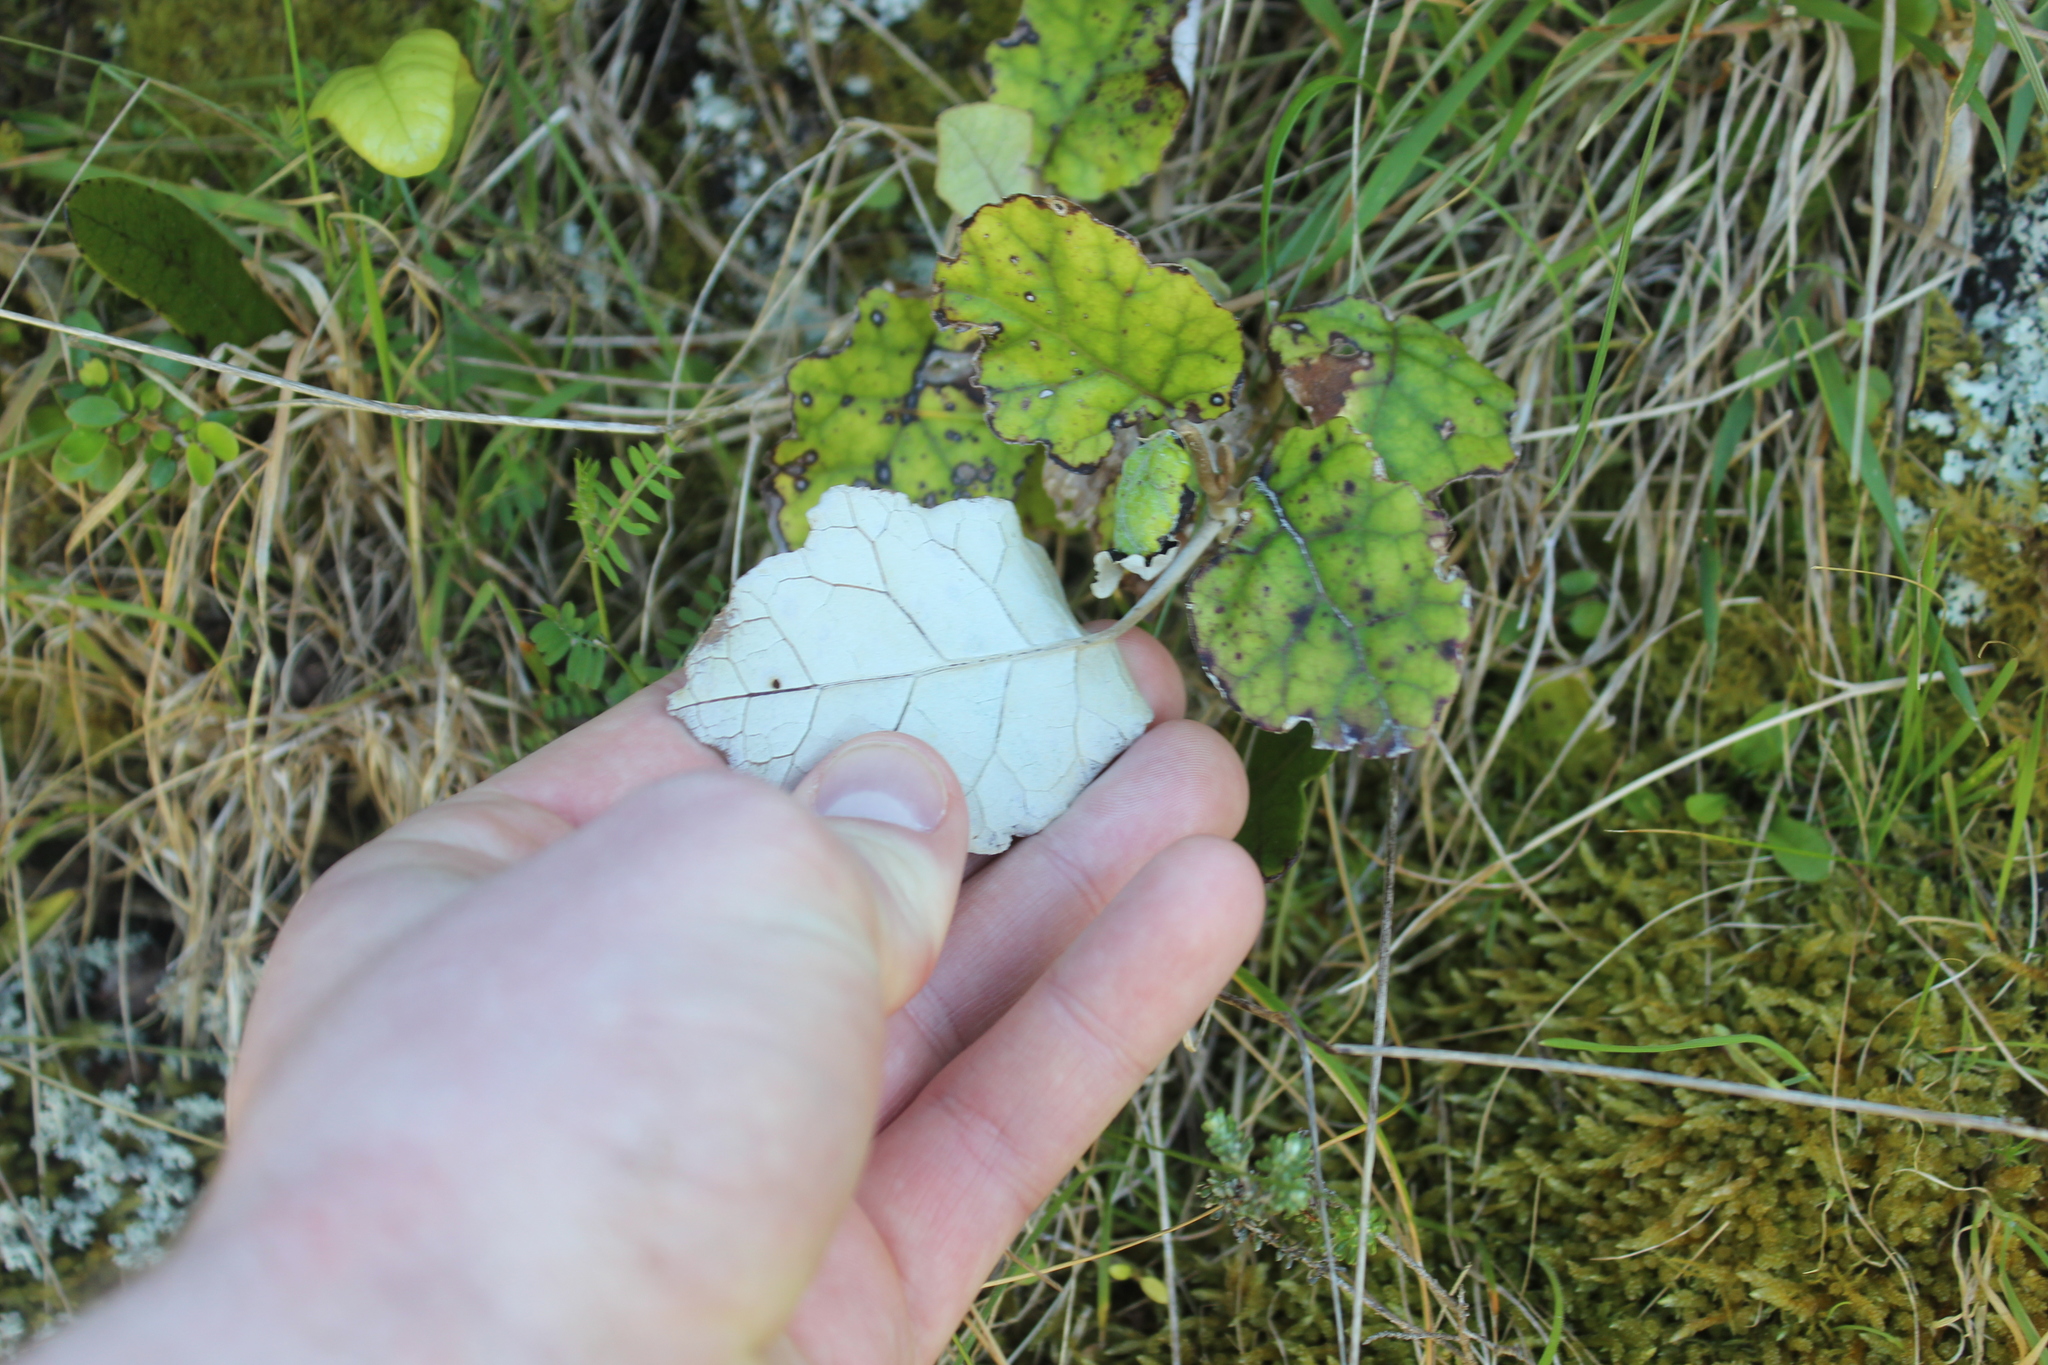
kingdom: Plantae
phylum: Tracheophyta
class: Magnoliopsida
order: Asterales
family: Asteraceae
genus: Brachyglottis
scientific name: Brachyglottis repanda
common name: Hedge ragwort
